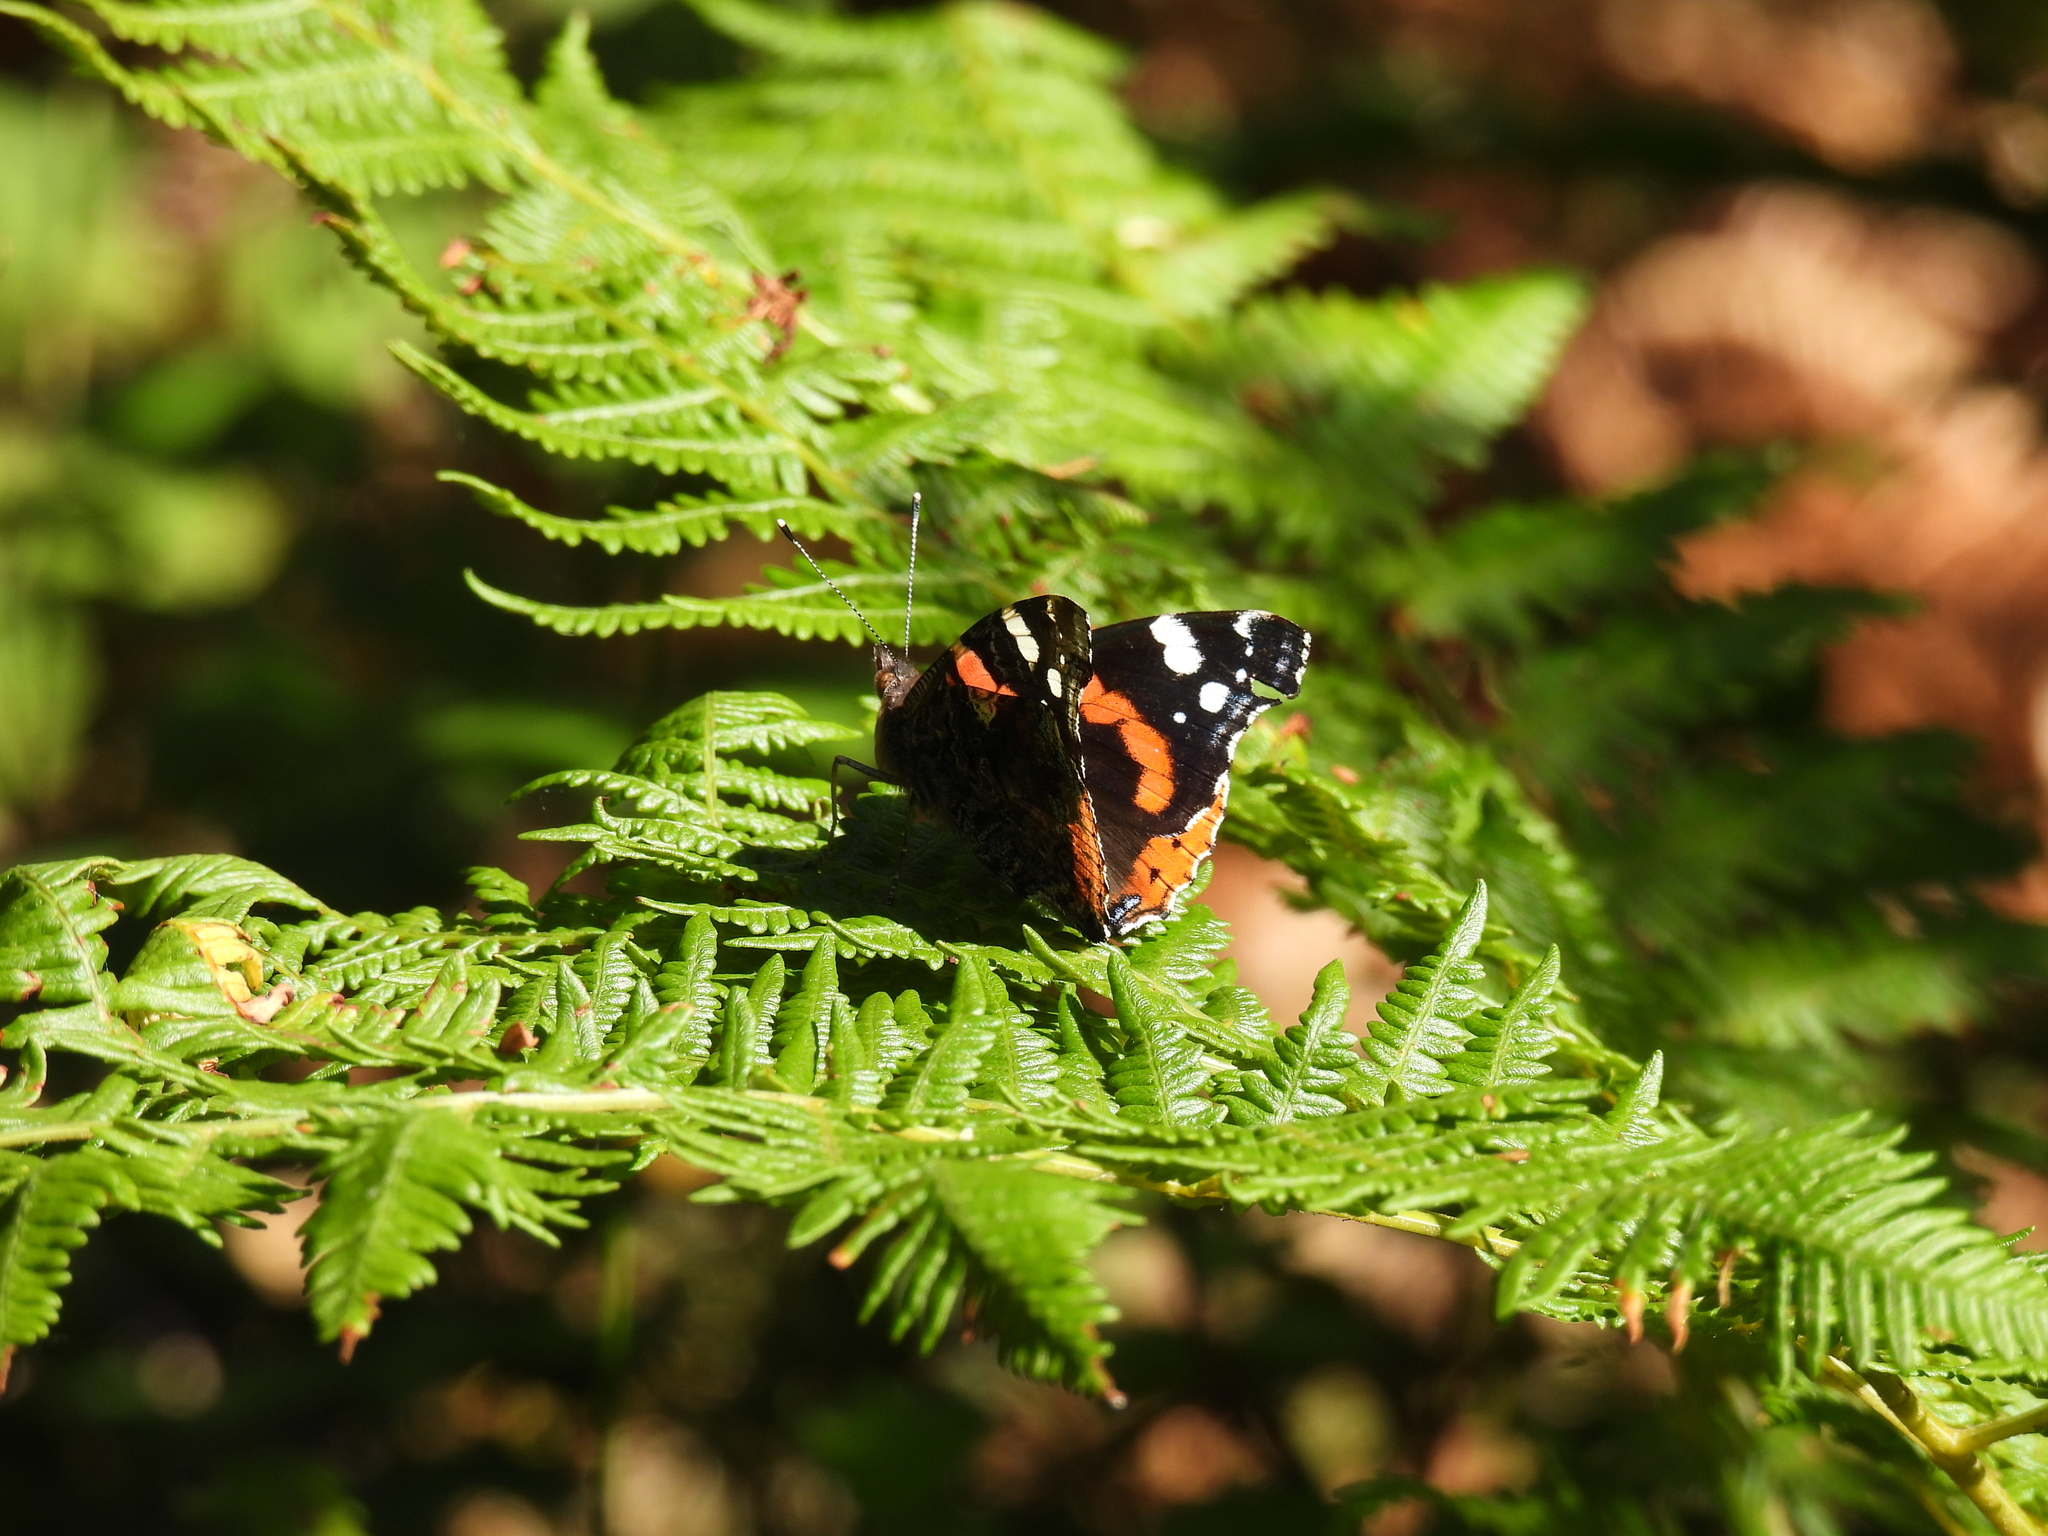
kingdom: Animalia
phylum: Arthropoda
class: Insecta
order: Lepidoptera
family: Nymphalidae
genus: Vanessa
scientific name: Vanessa atalanta
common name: Red admiral
